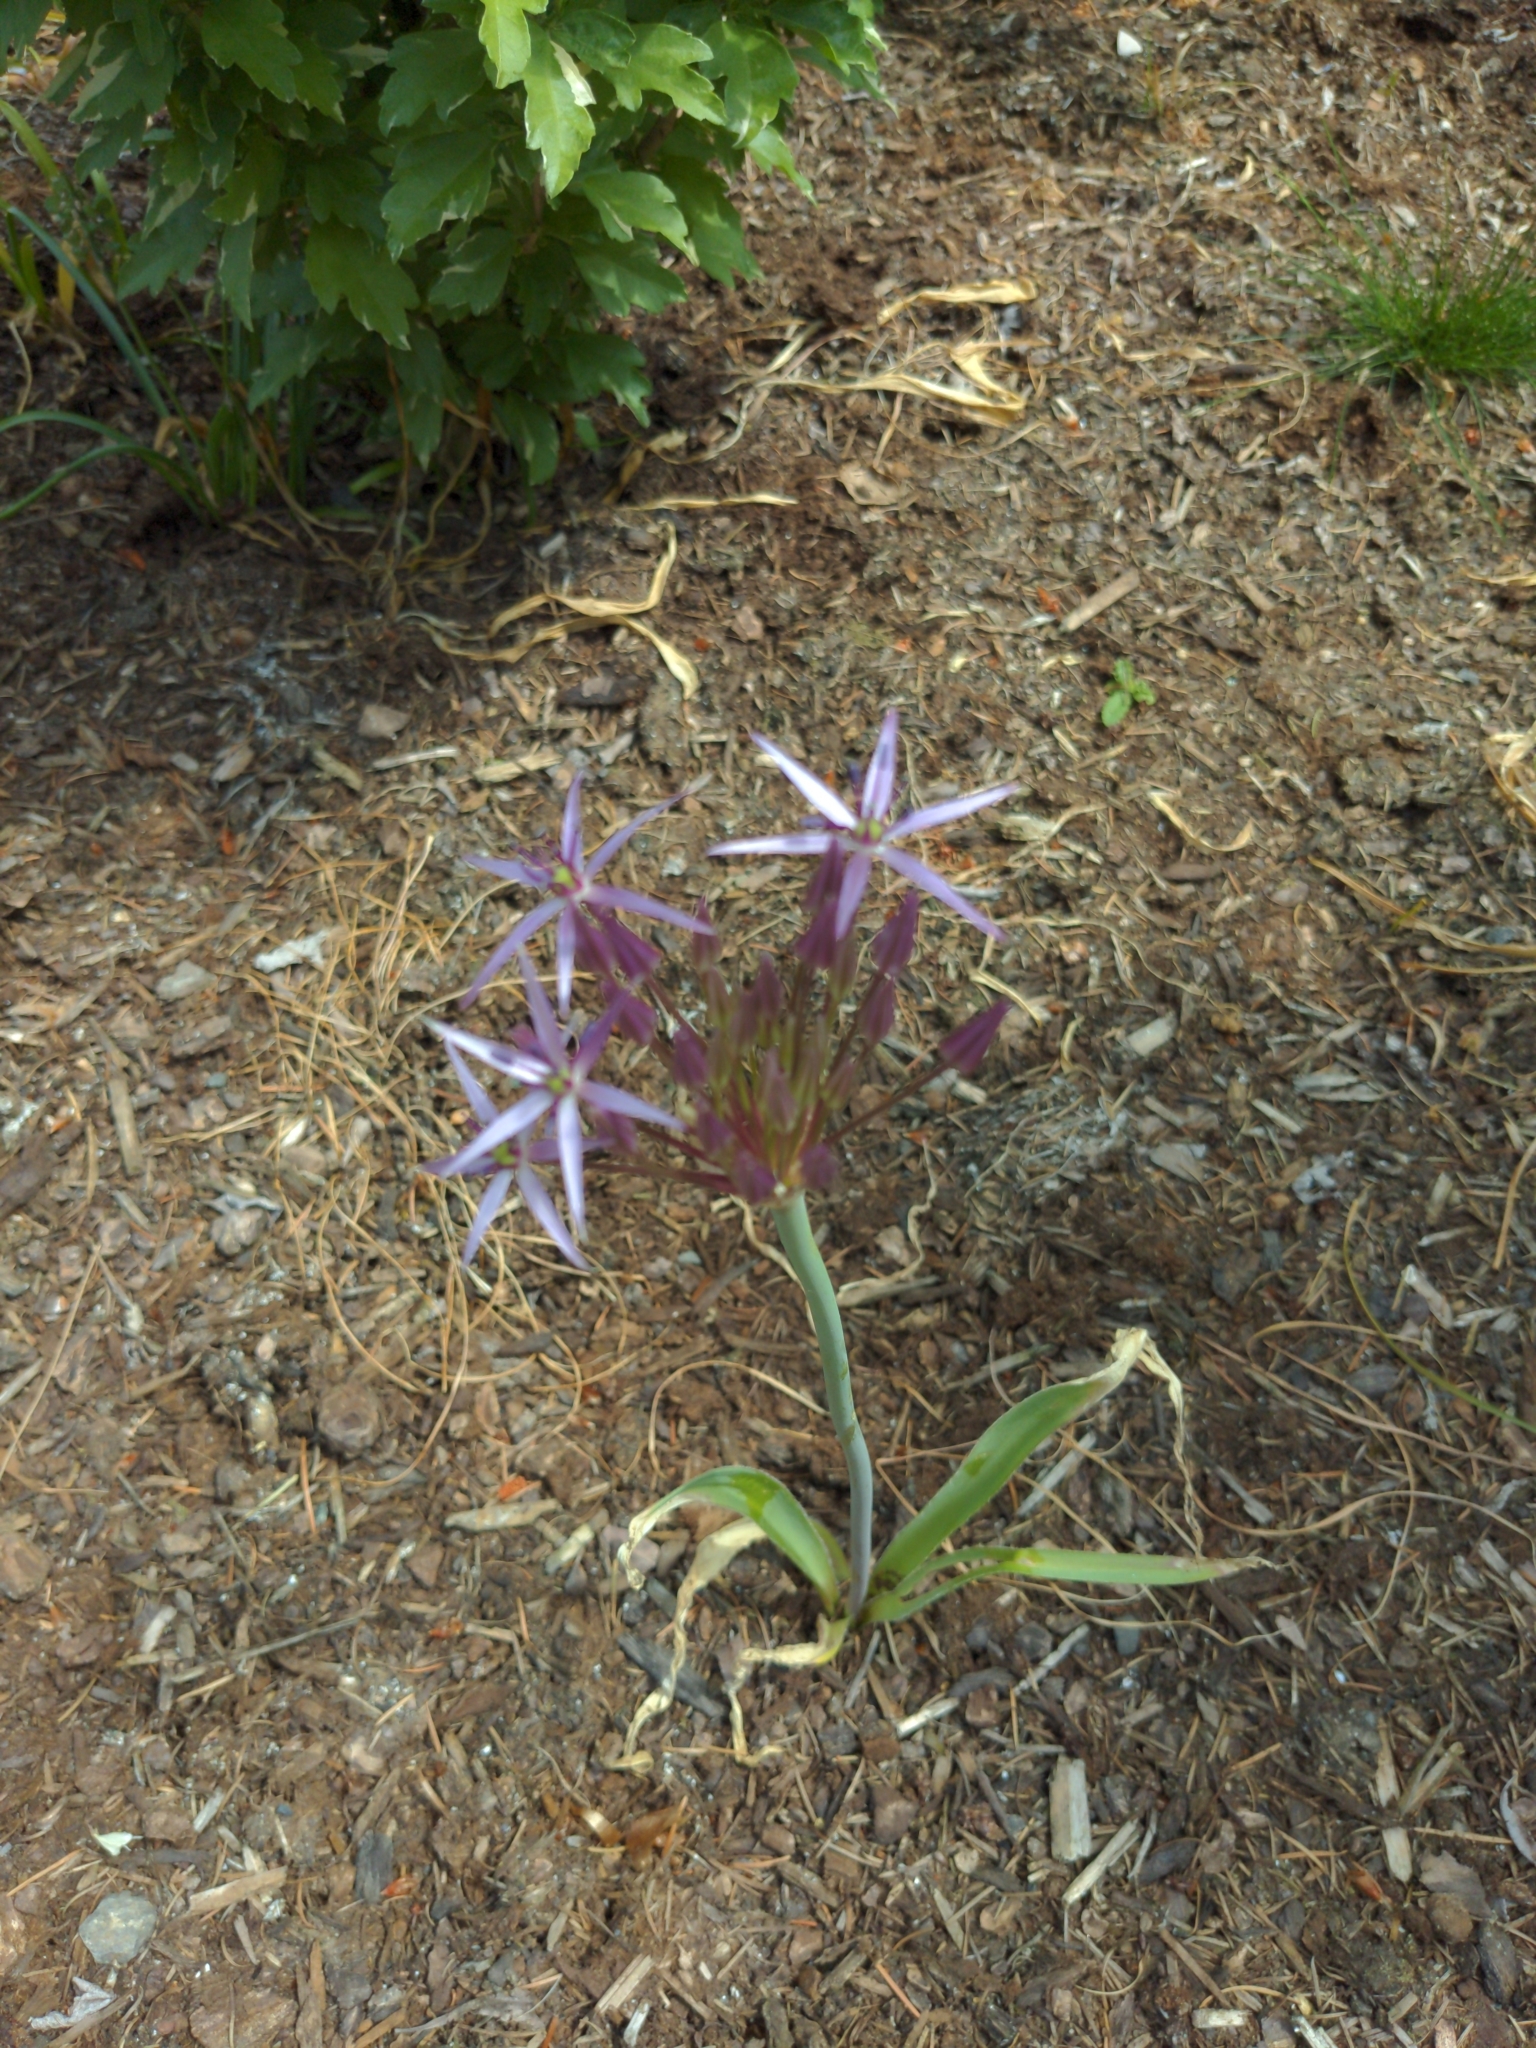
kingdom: Plantae
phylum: Tracheophyta
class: Liliopsida
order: Asparagales
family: Amaryllidaceae
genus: Allium
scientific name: Allium cristophii
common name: Persian onion
